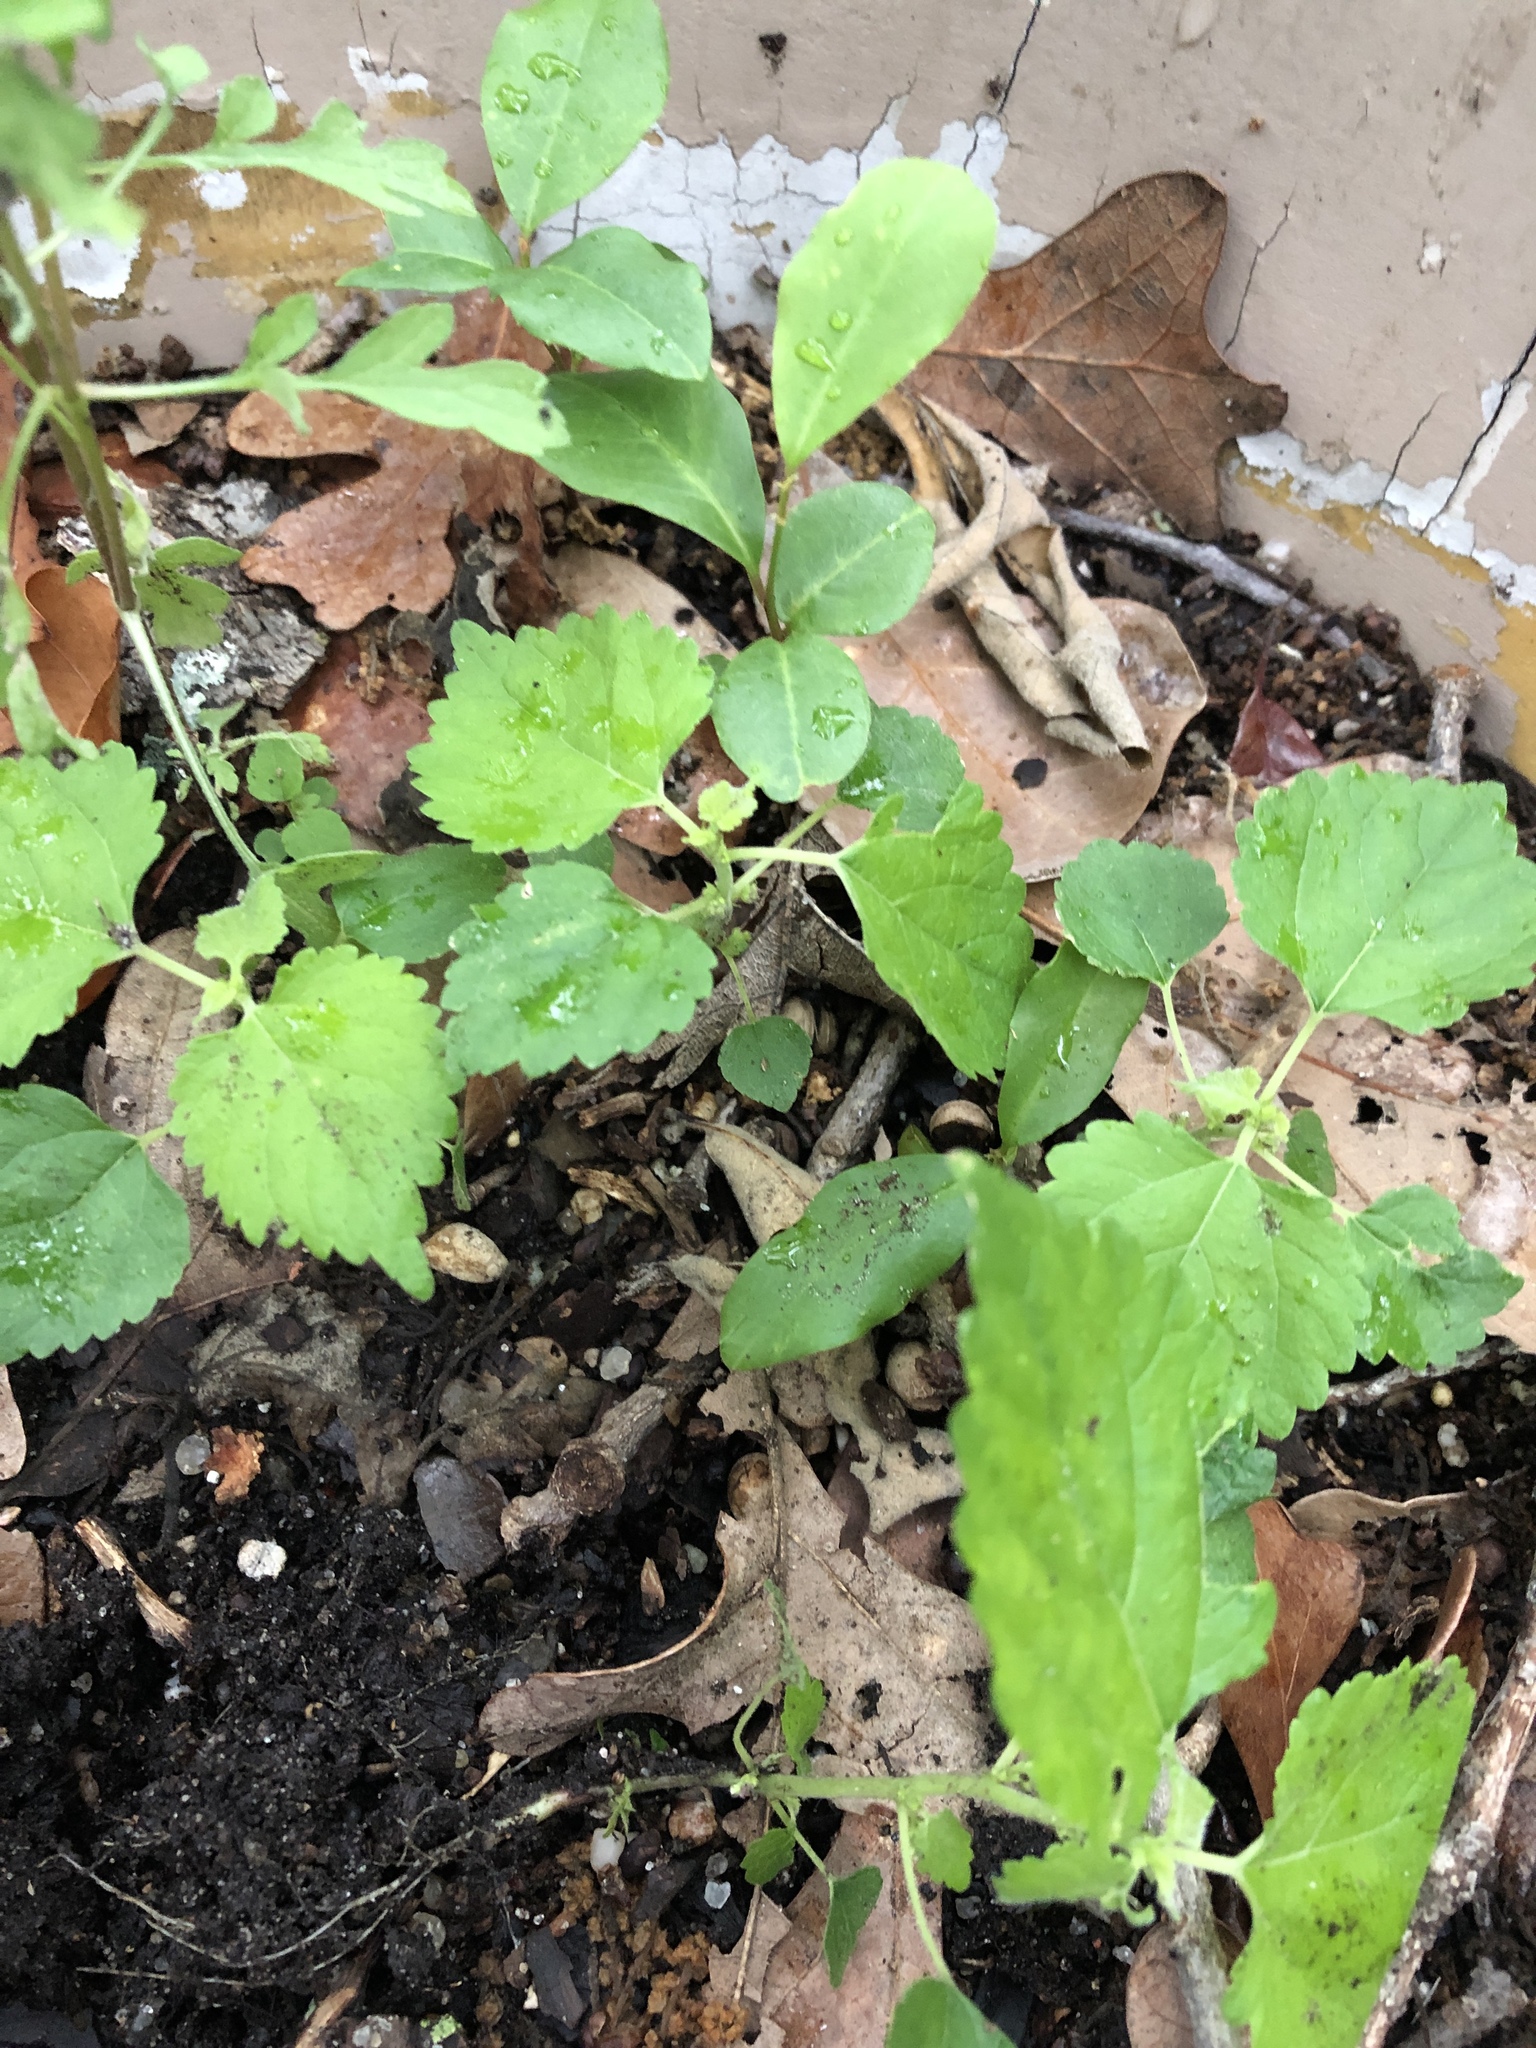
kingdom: Plantae
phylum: Tracheophyta
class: Magnoliopsida
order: Rosales
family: Moraceae
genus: Fatoua
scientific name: Fatoua villosa
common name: Hairy crabweed
